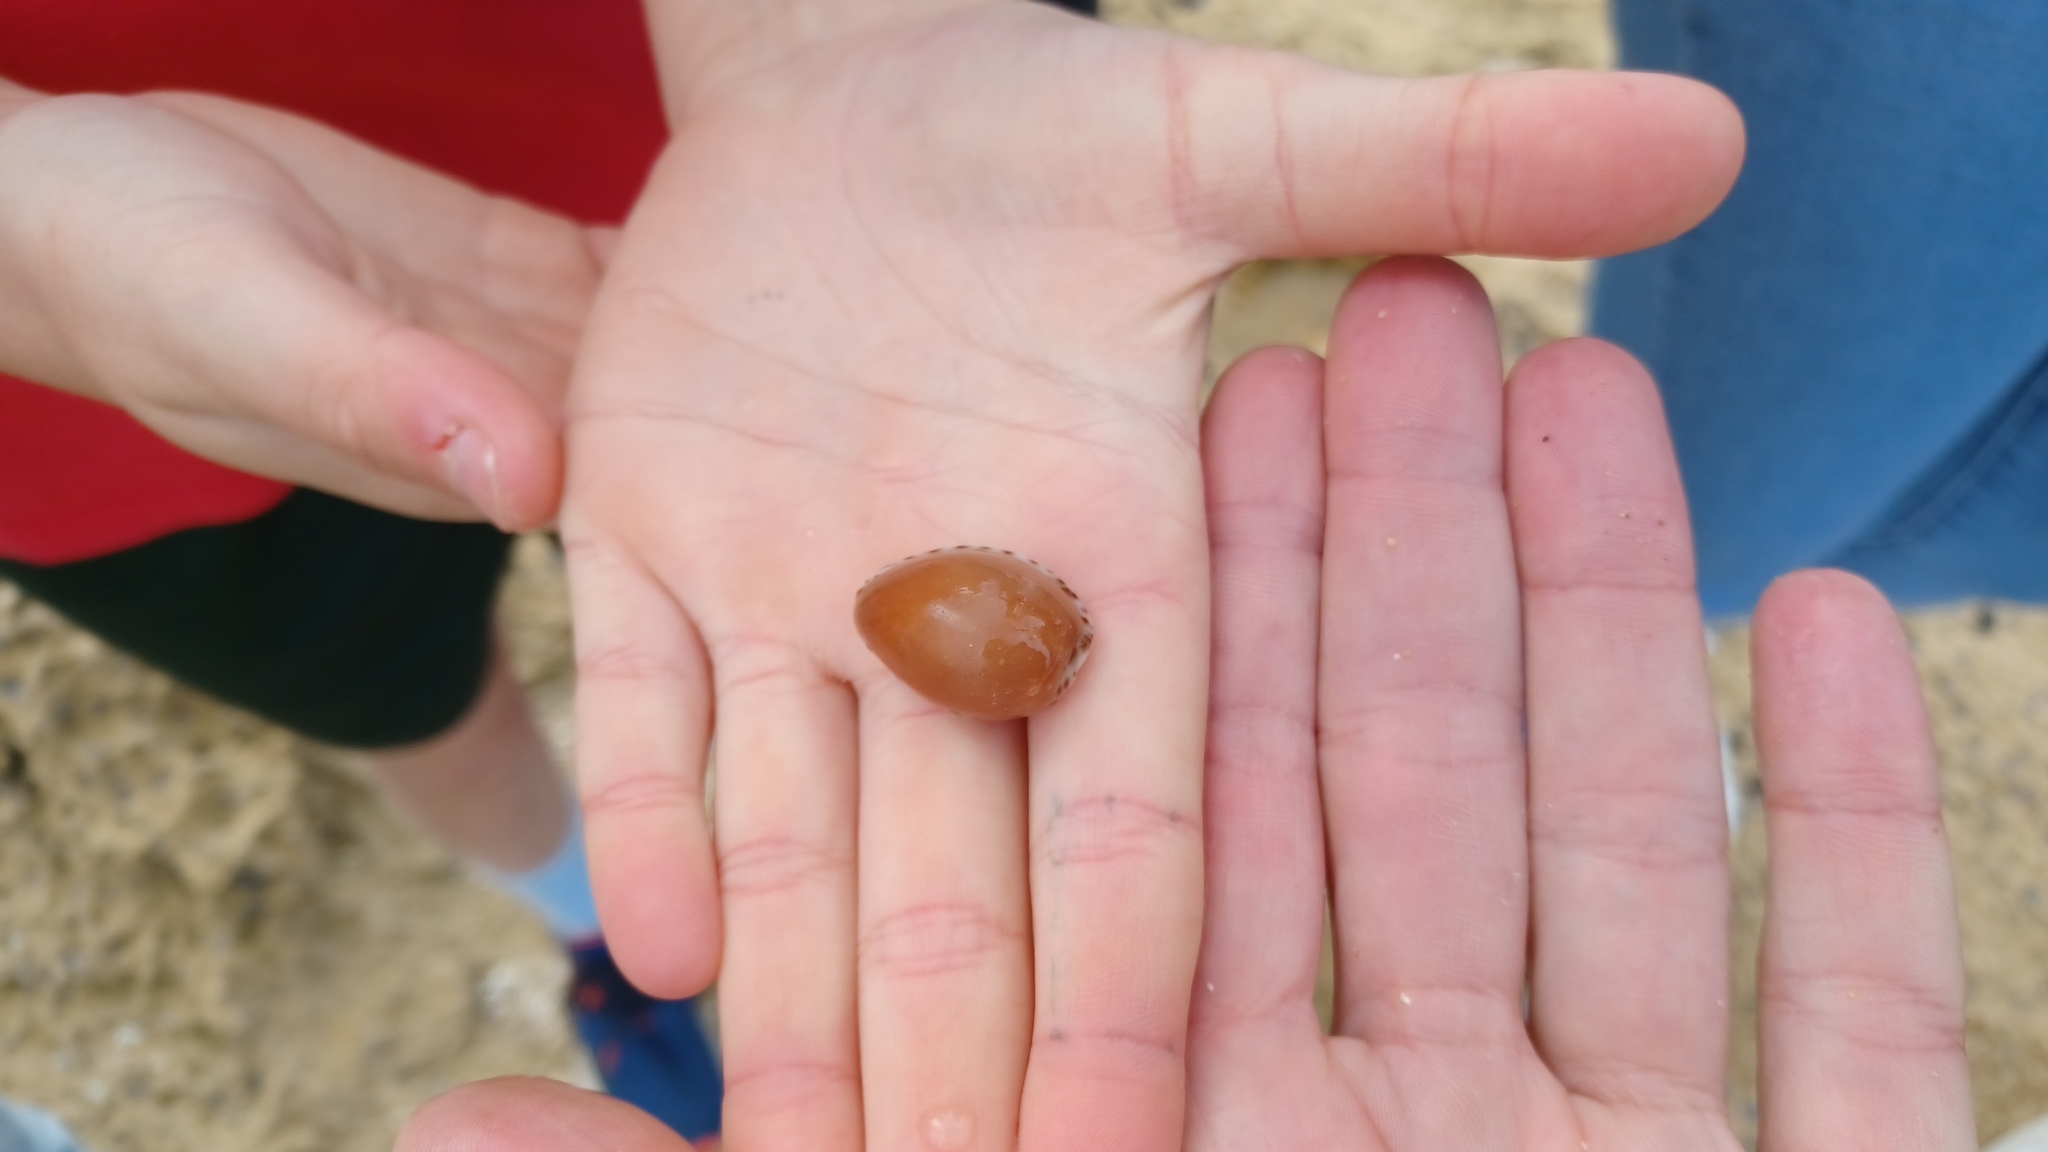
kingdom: Animalia
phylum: Mollusca
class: Gastropoda
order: Littorinimorpha
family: Cypraeidae
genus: Notocypraea
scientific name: Notocypraea angustata
